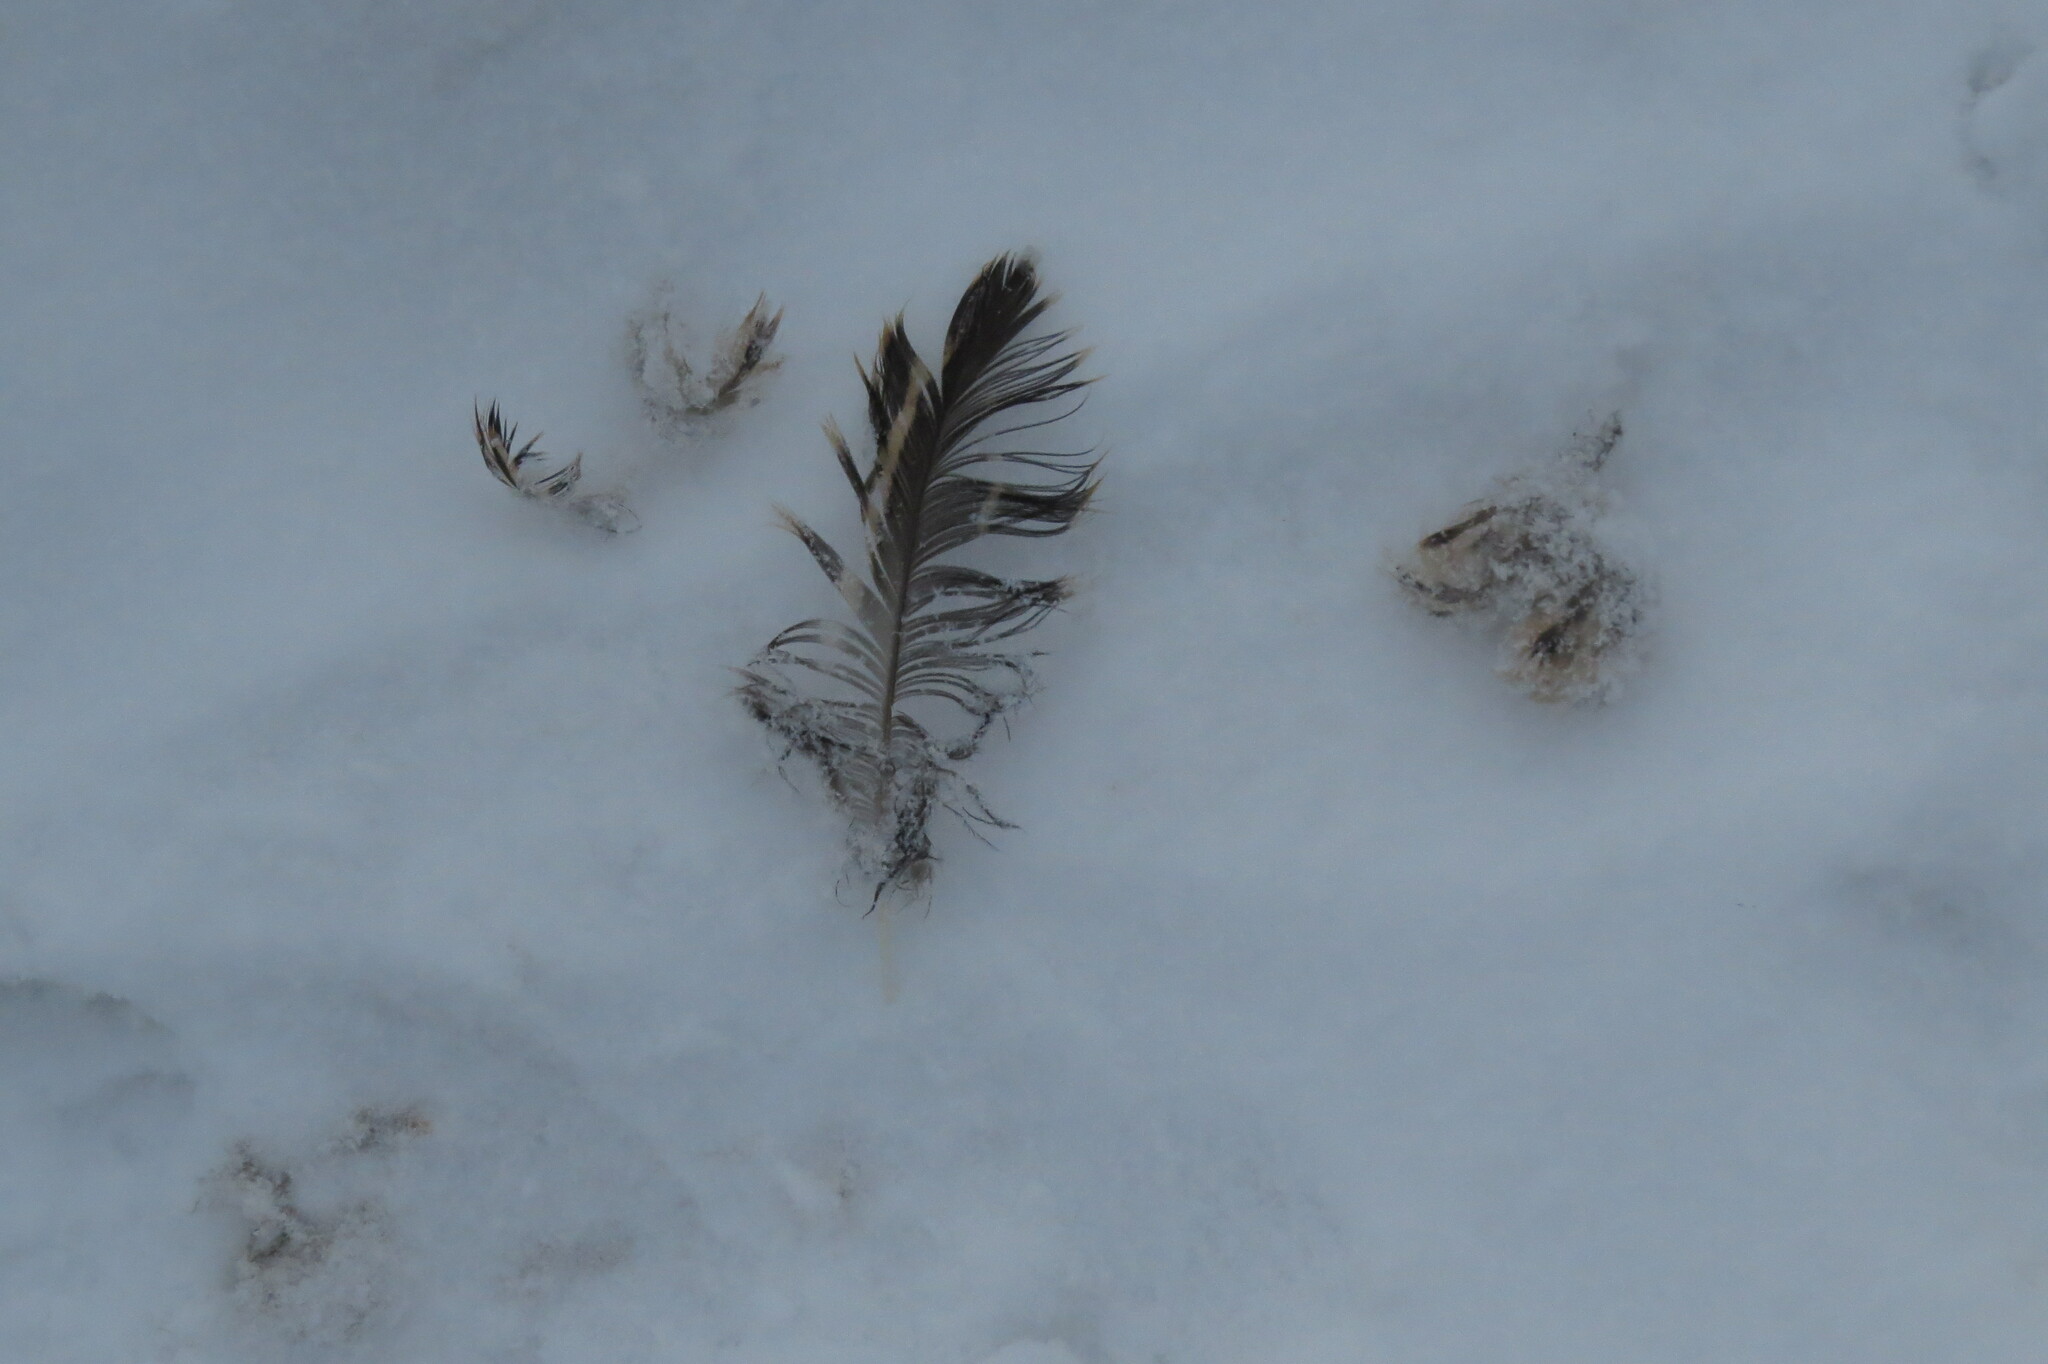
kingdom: Animalia
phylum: Chordata
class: Aves
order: Anseriformes
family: Anatidae
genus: Anas
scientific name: Anas platyrhynchos
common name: Mallard
